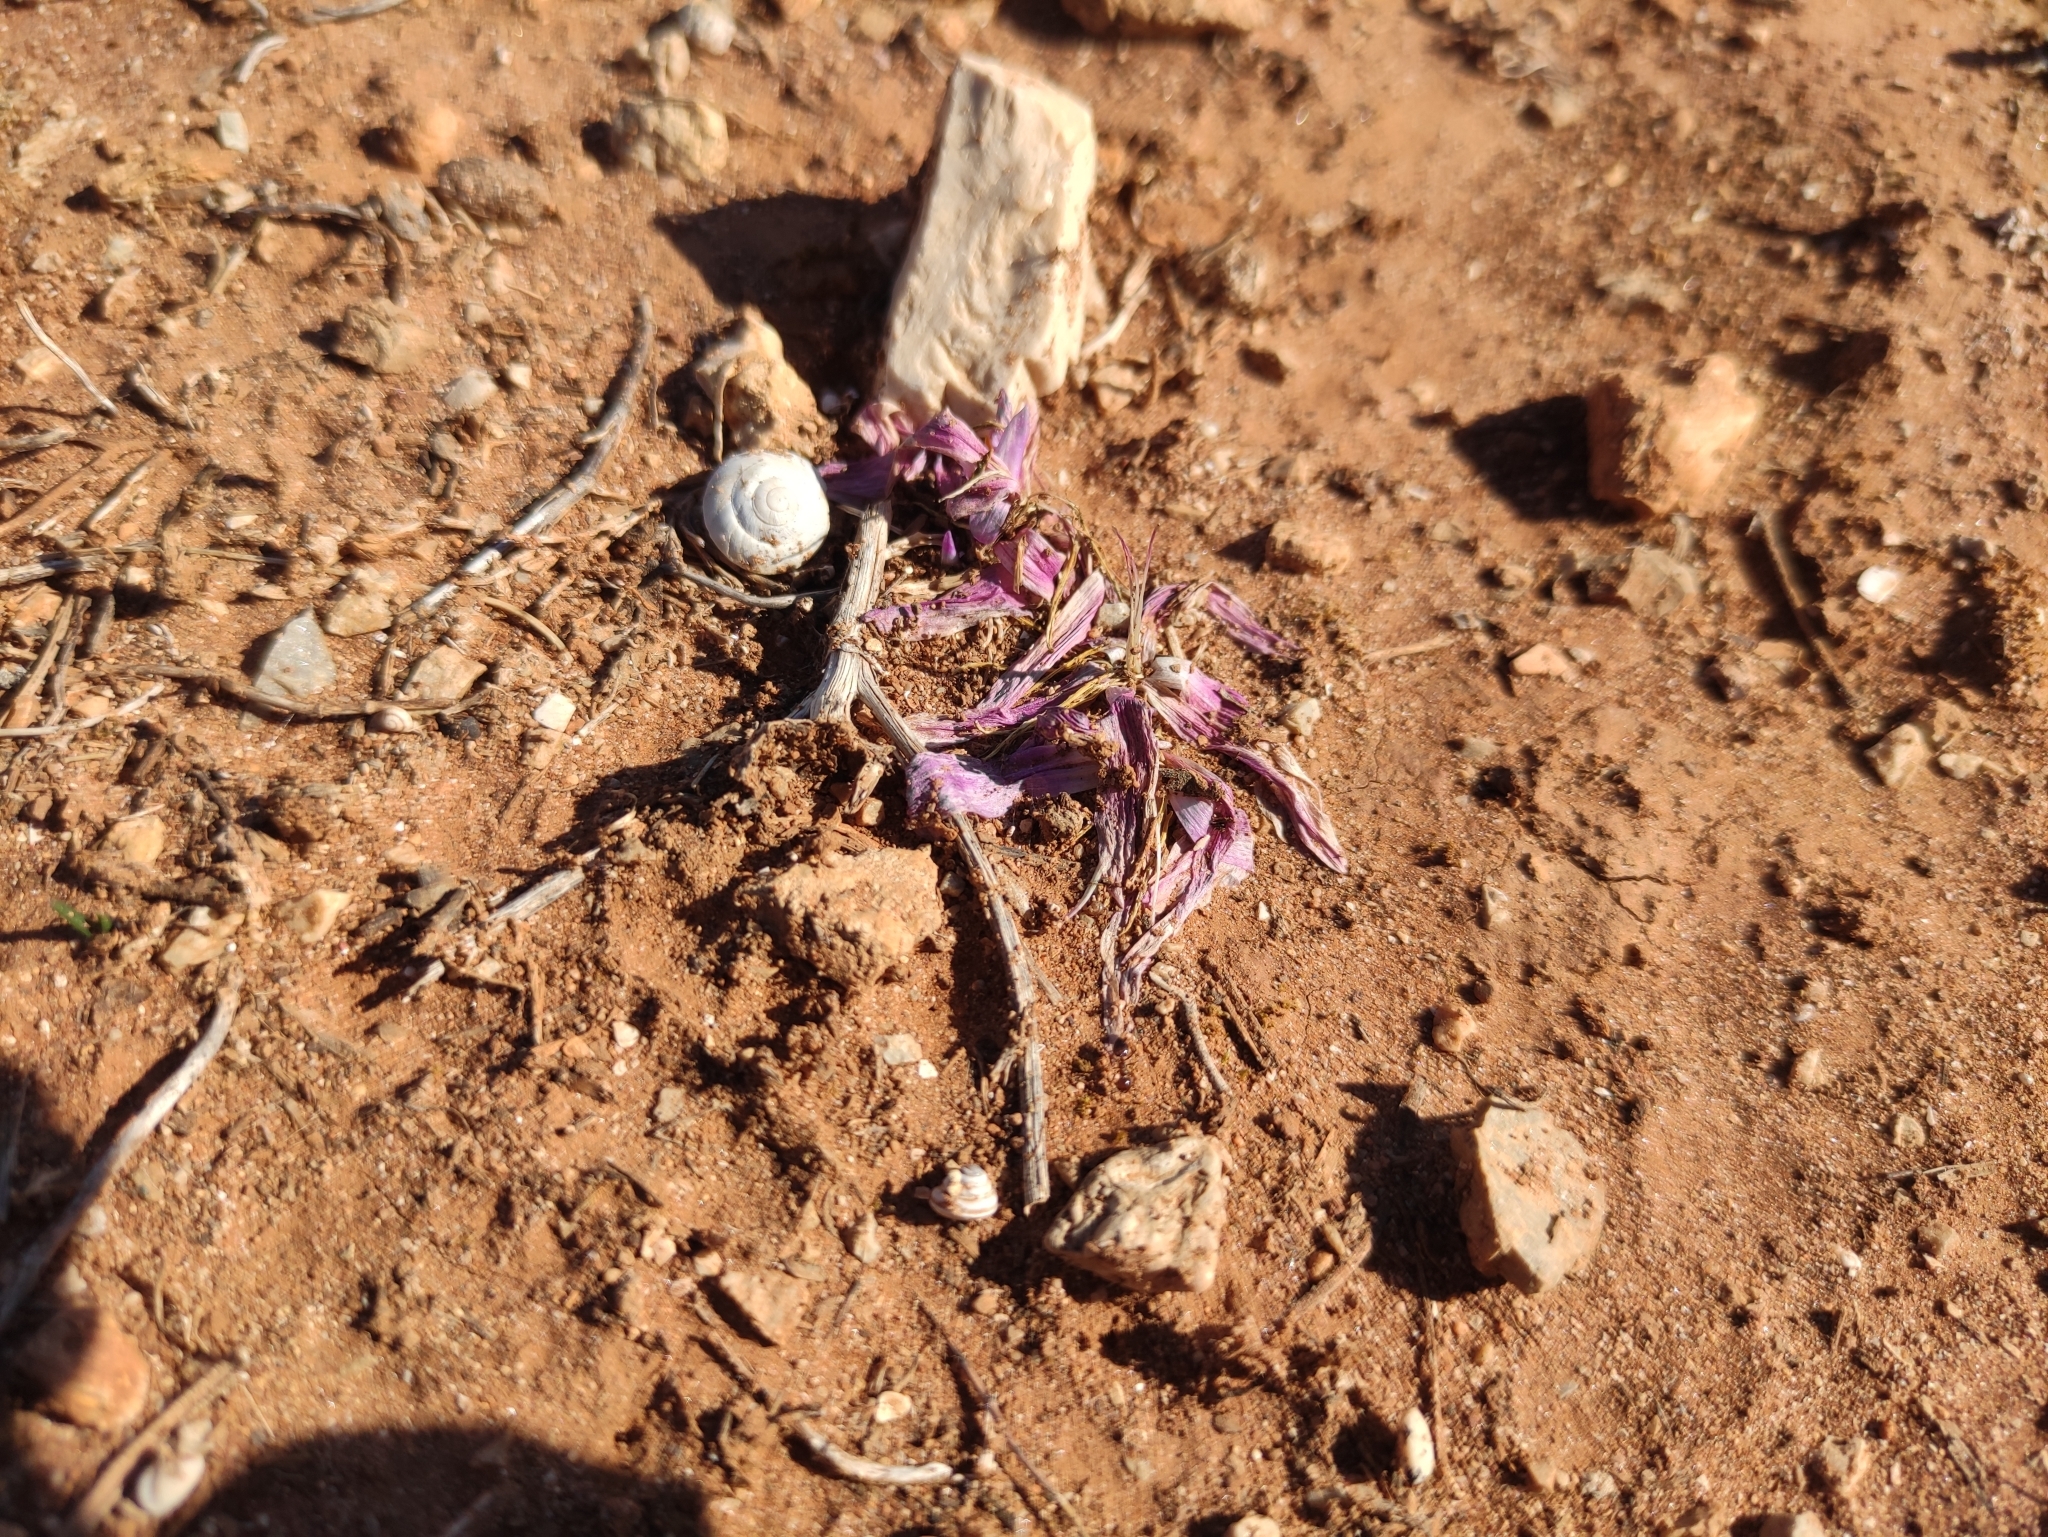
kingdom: Plantae
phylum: Tracheophyta
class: Liliopsida
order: Liliales
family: Colchicaceae
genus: Colchicum
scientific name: Colchicum filifolium
